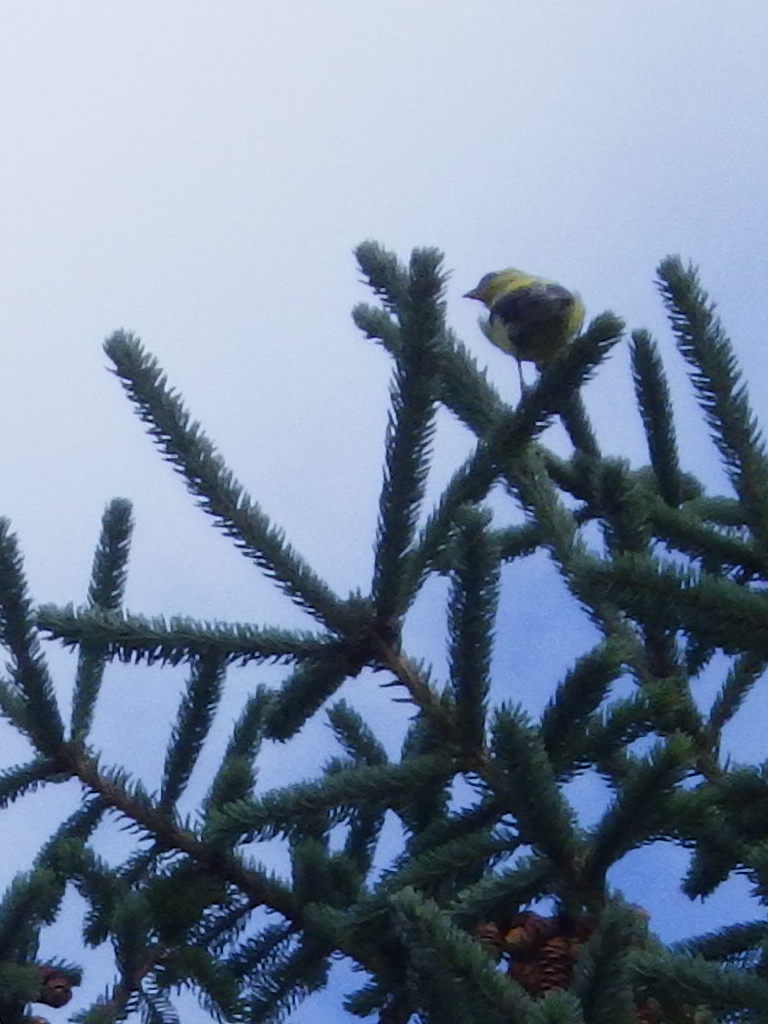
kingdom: Animalia
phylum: Chordata
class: Aves
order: Passeriformes
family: Fringillidae
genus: Spinus
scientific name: Spinus tristis
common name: American goldfinch
